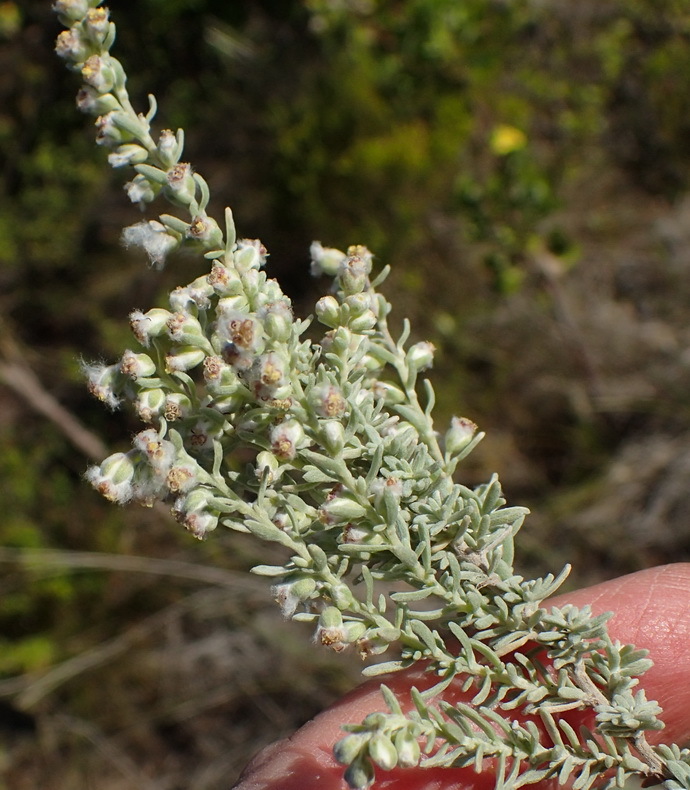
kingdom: Plantae
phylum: Tracheophyta
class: Magnoliopsida
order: Asterales
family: Asteraceae
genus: Eriocephalus
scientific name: Eriocephalus racemosus
